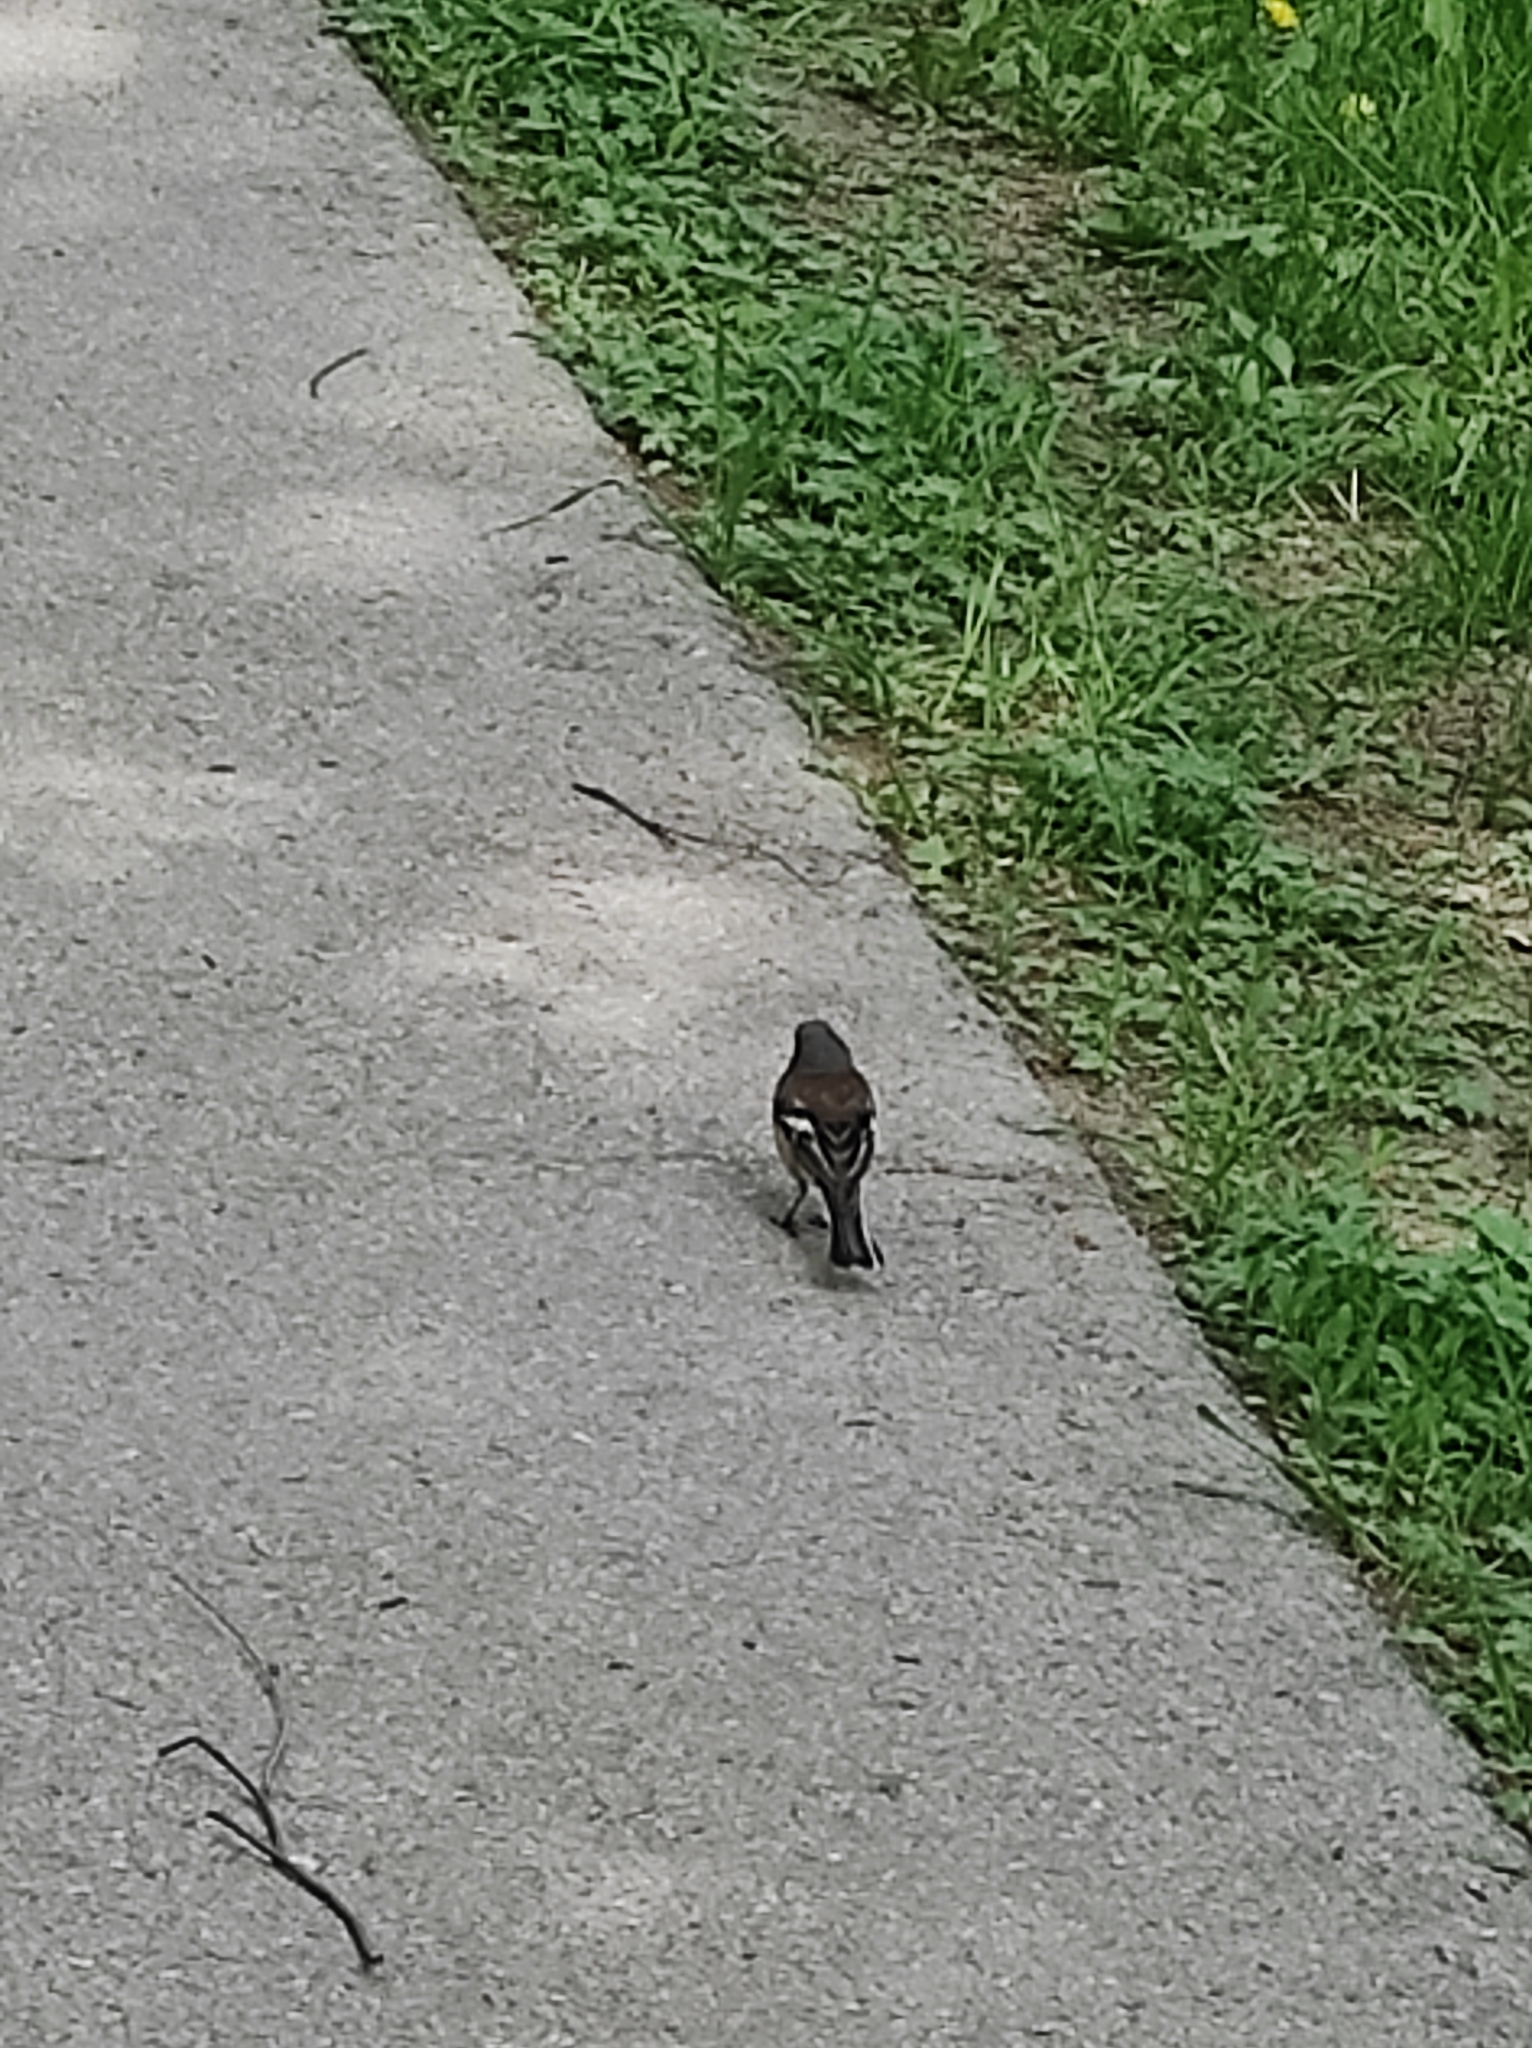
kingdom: Animalia
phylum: Chordata
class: Aves
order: Passeriformes
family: Fringillidae
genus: Fringilla
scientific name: Fringilla coelebs
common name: Common chaffinch
